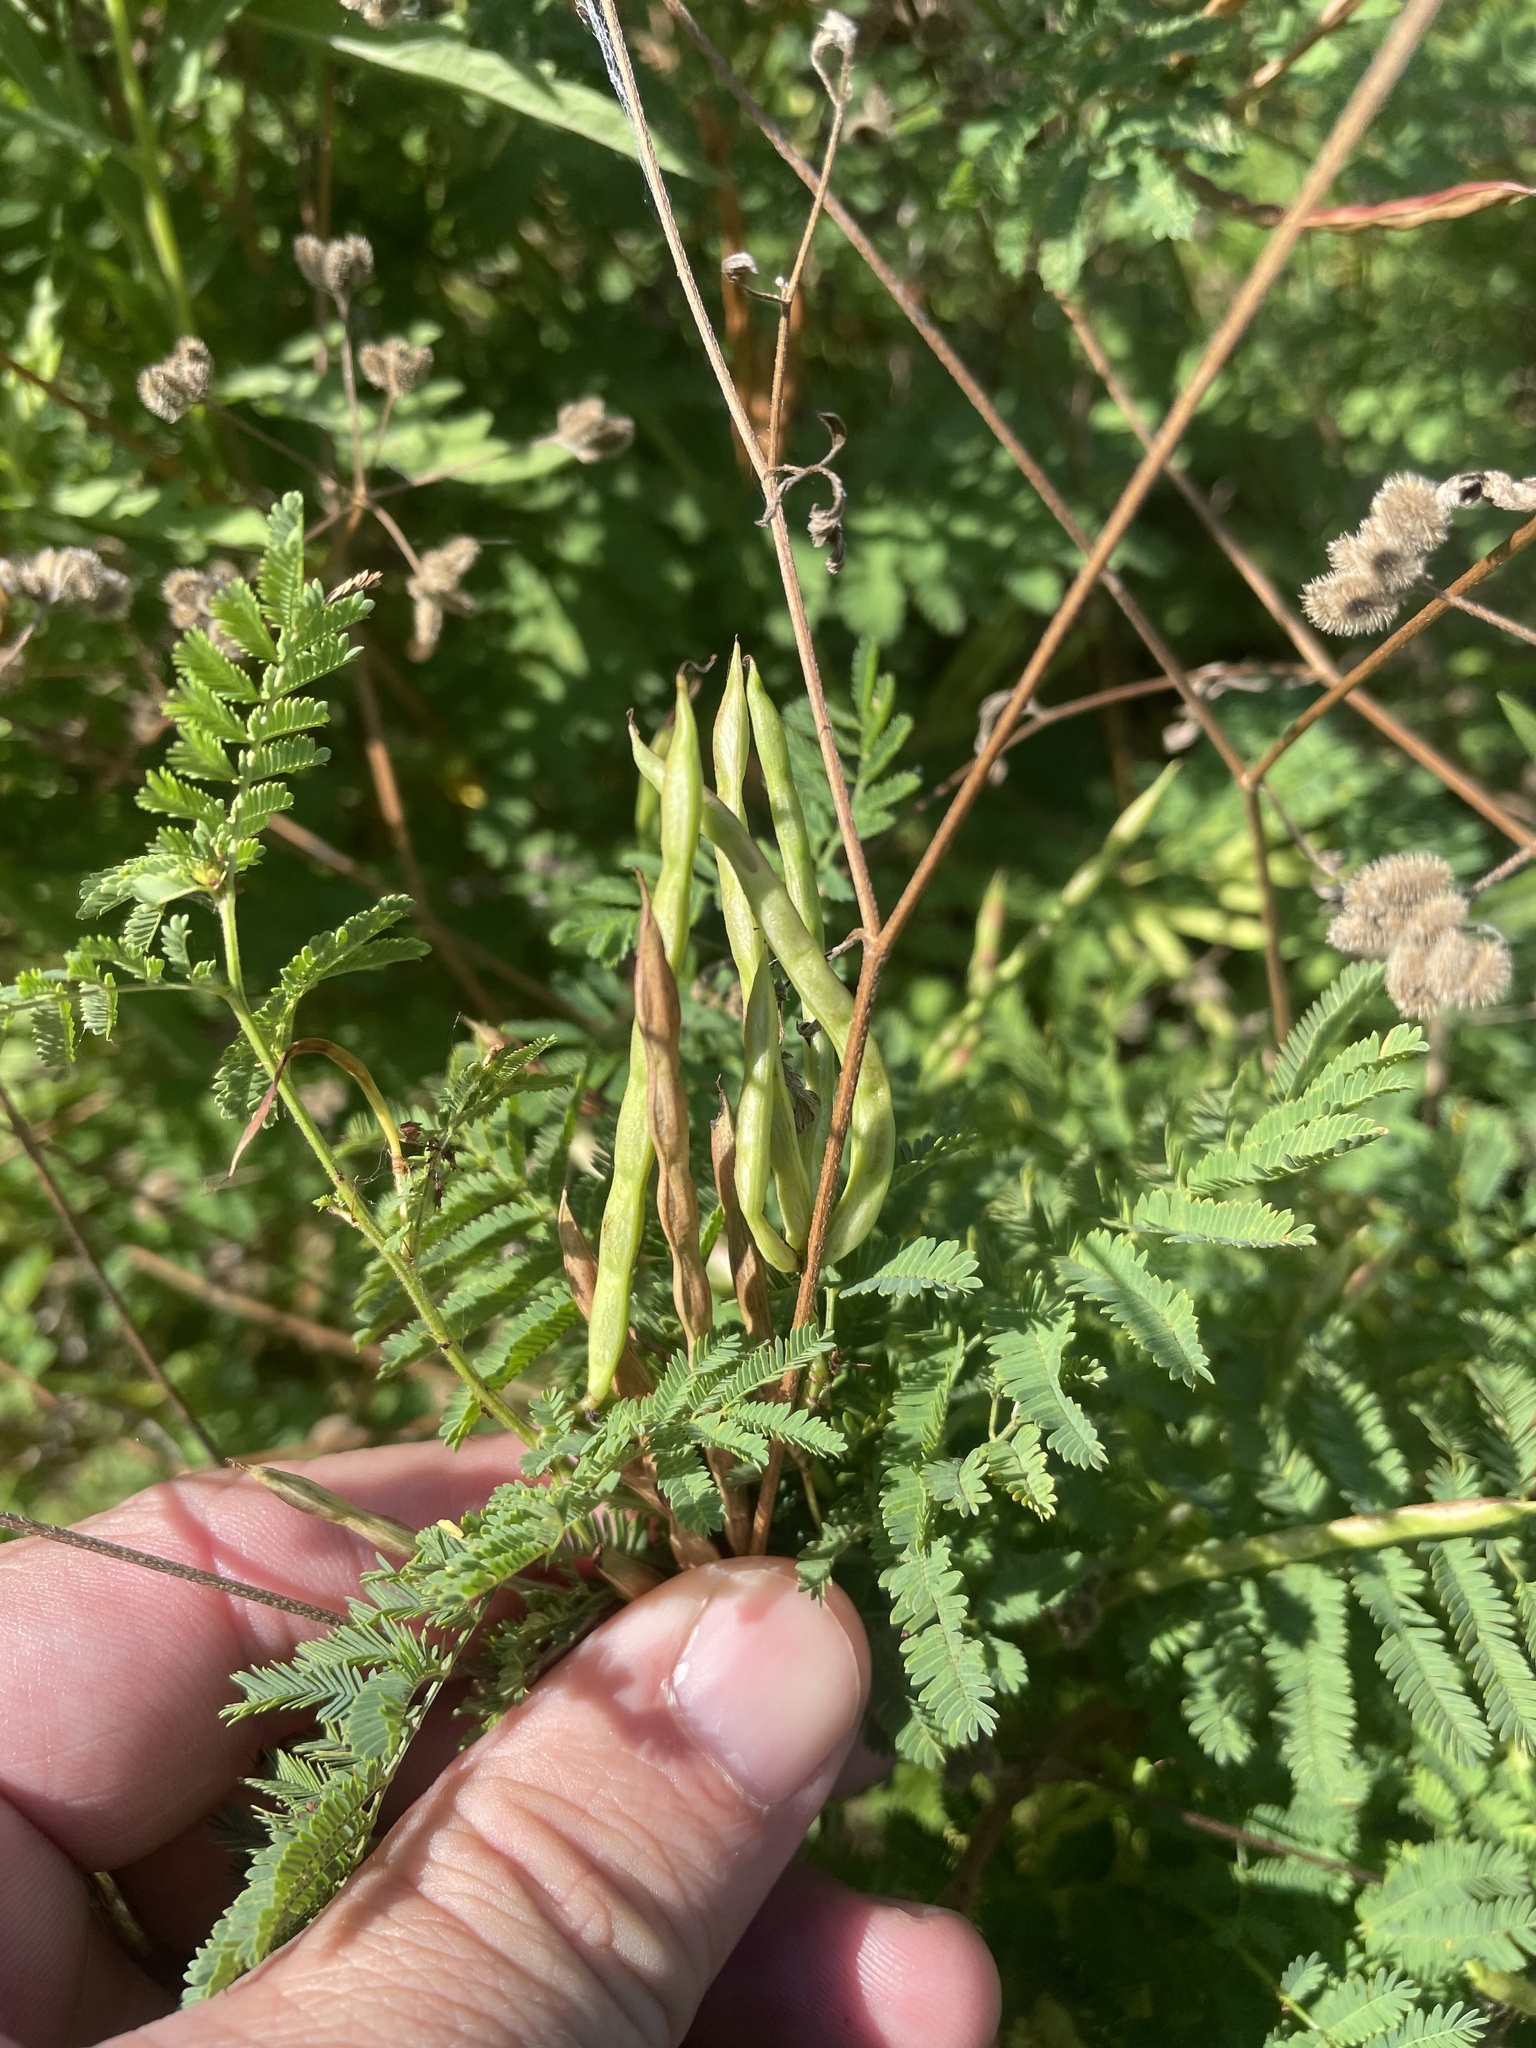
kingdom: Plantae
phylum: Tracheophyta
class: Magnoliopsida
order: Fabales
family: Fabaceae
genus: Desmanthus
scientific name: Desmanthus leptolobus
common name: Prairie-mimosa
